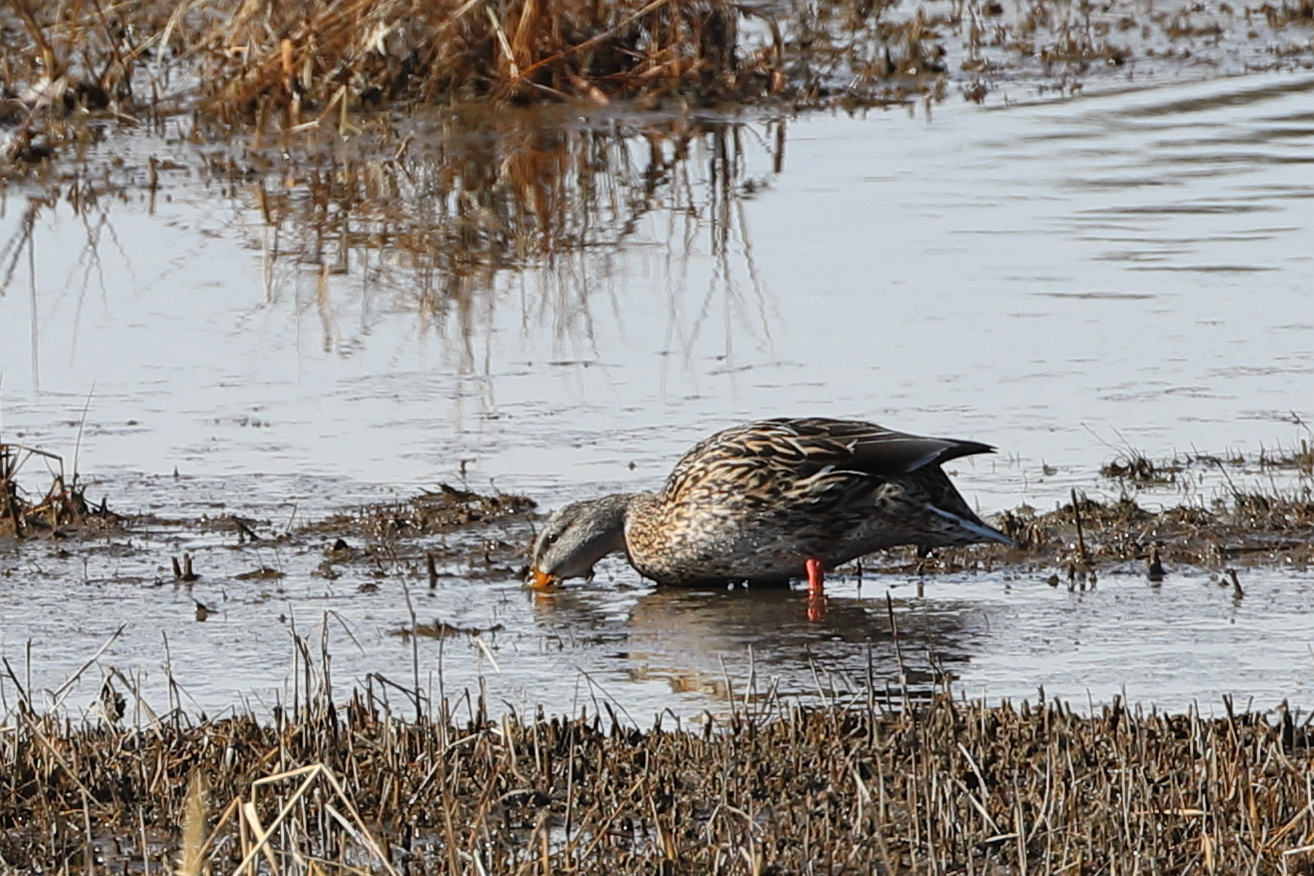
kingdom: Animalia
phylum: Chordata
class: Aves
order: Anseriformes
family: Anatidae
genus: Anas
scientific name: Anas platyrhynchos
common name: Mallard
